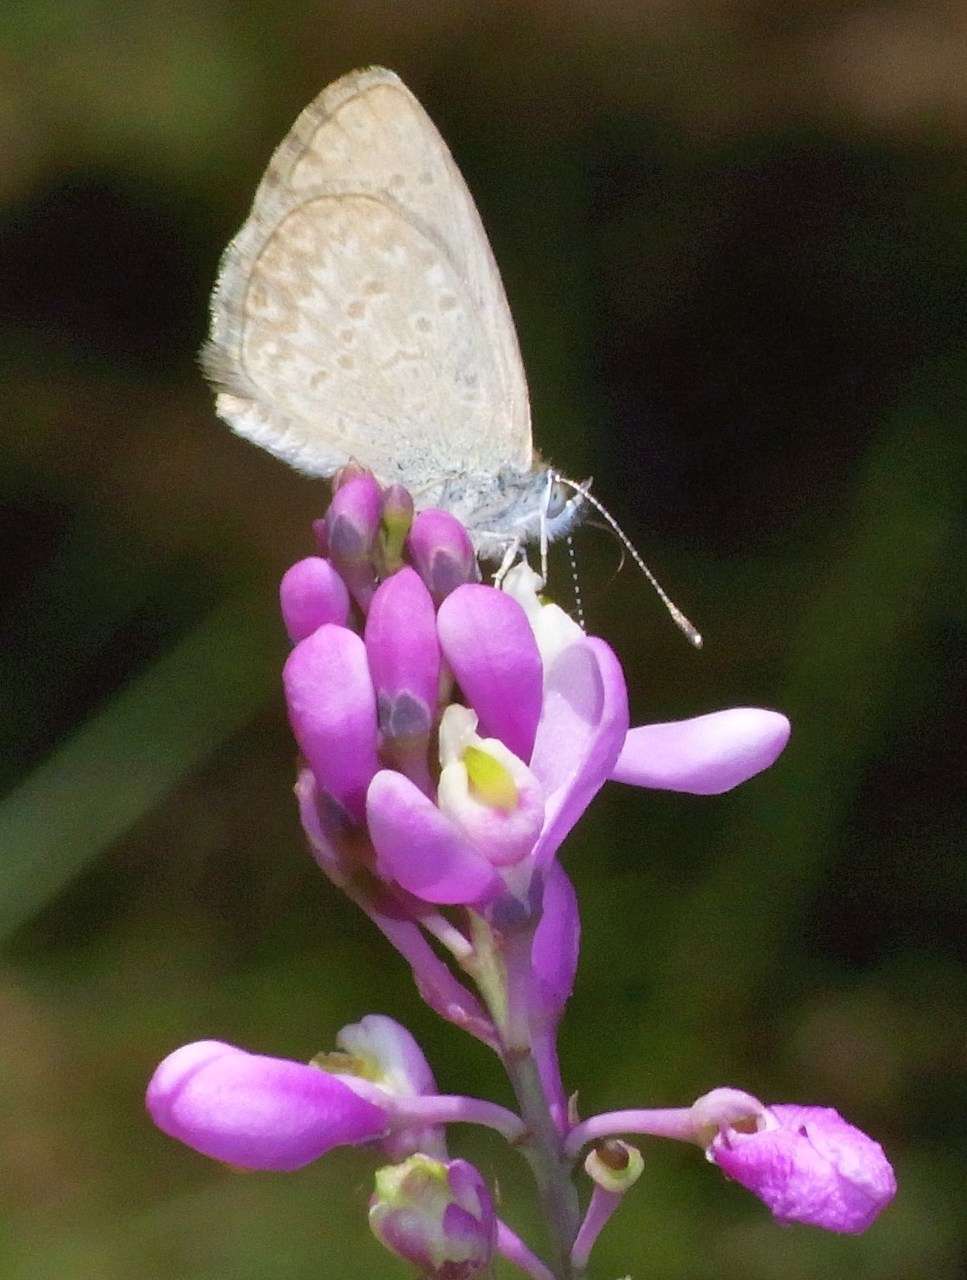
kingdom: Animalia
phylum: Arthropoda
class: Insecta
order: Lepidoptera
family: Lycaenidae
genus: Zizina
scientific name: Zizina labradus
